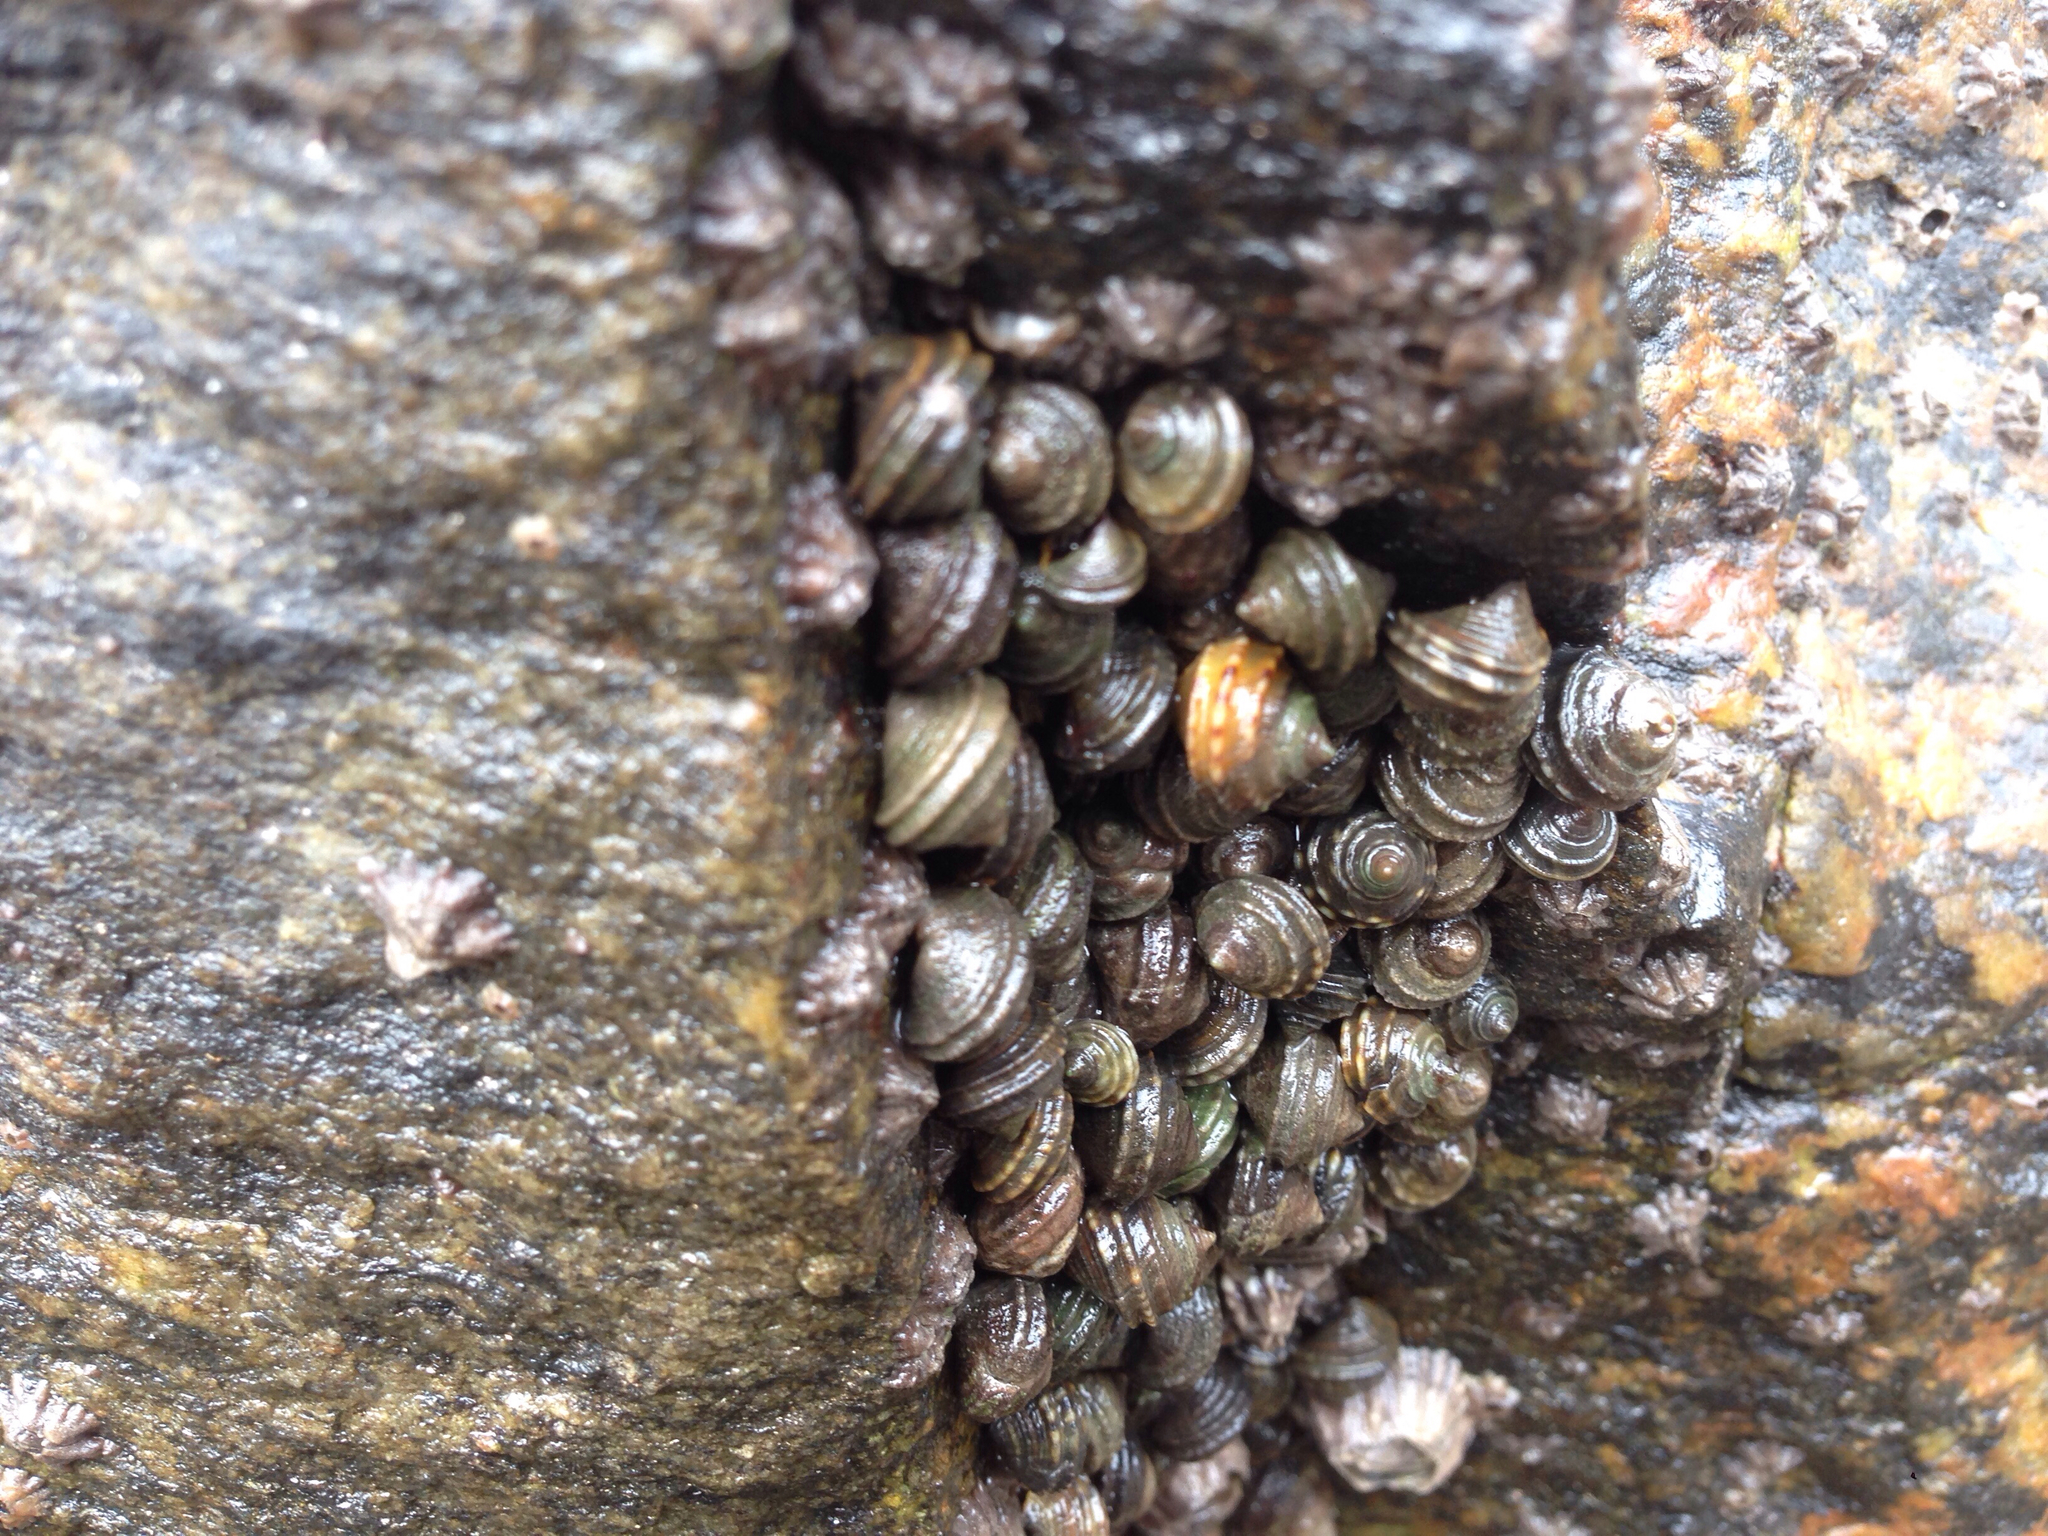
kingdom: Animalia
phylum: Mollusca
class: Gastropoda
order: Littorinimorpha
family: Littorinidae
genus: Littorina
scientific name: Littorina brevicula
